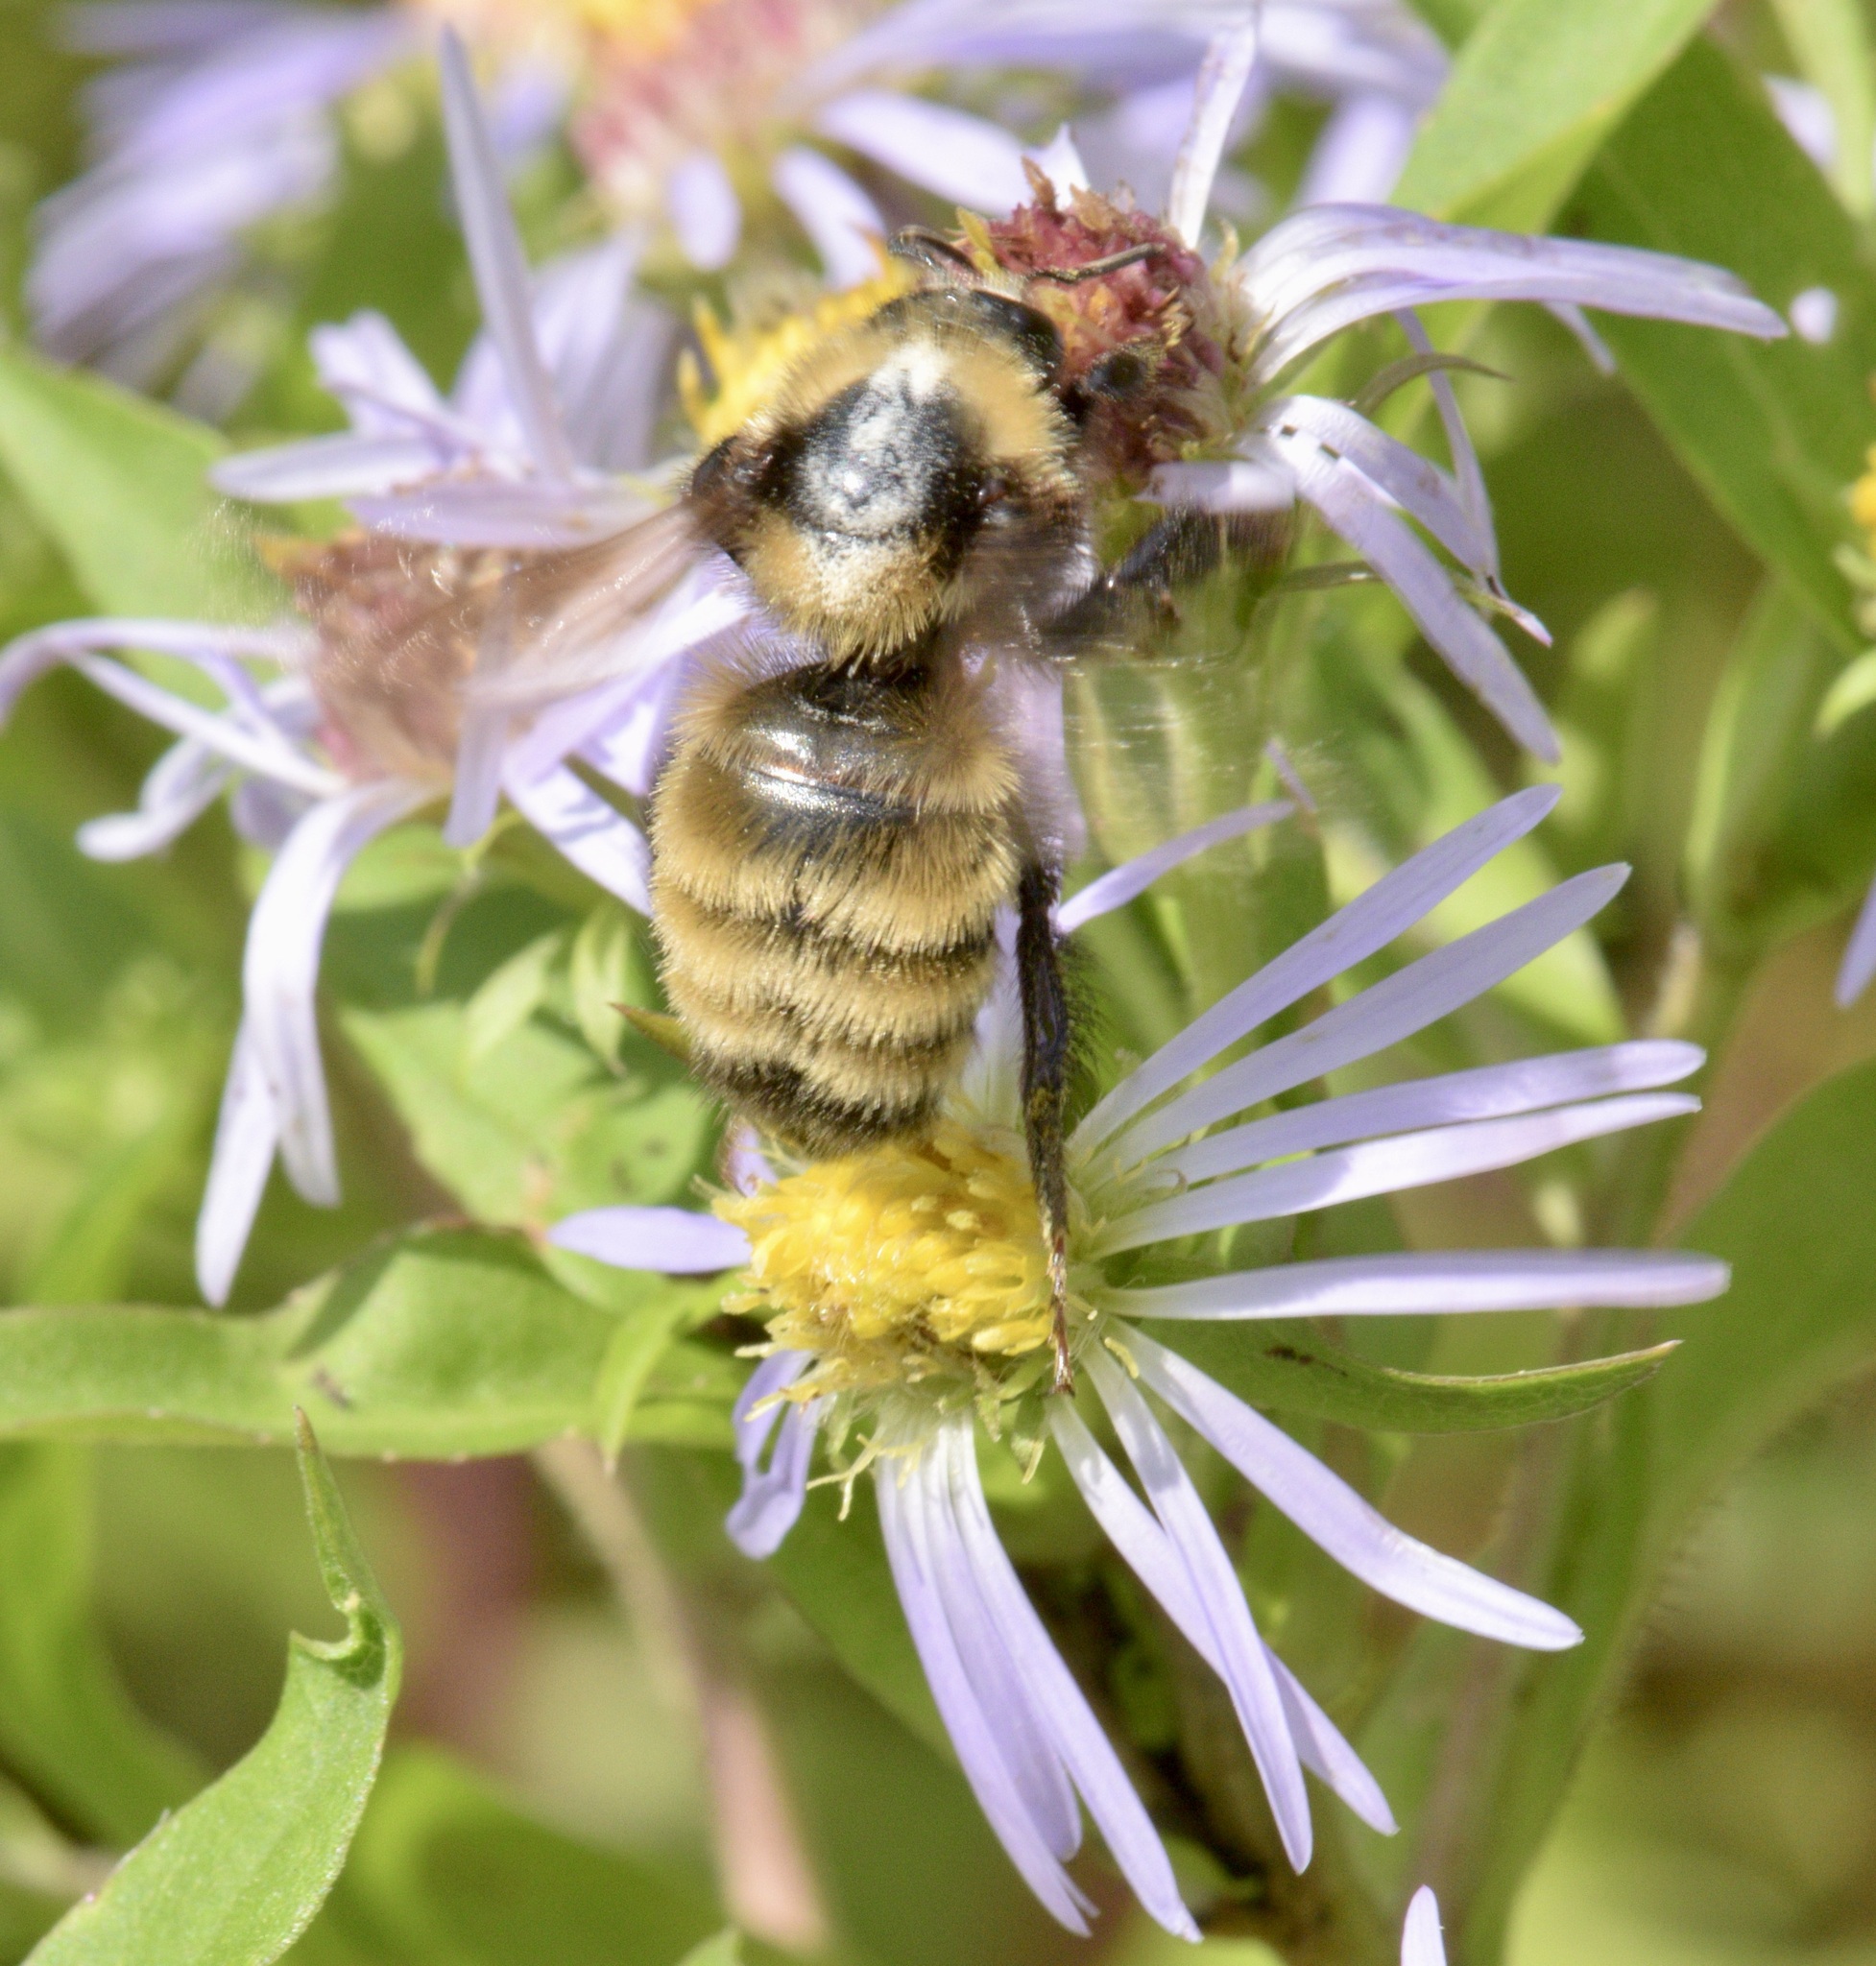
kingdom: Animalia
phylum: Arthropoda
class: Insecta
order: Hymenoptera
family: Apidae
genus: Bombus
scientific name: Bombus borealis
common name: Northern amber bumble bee
